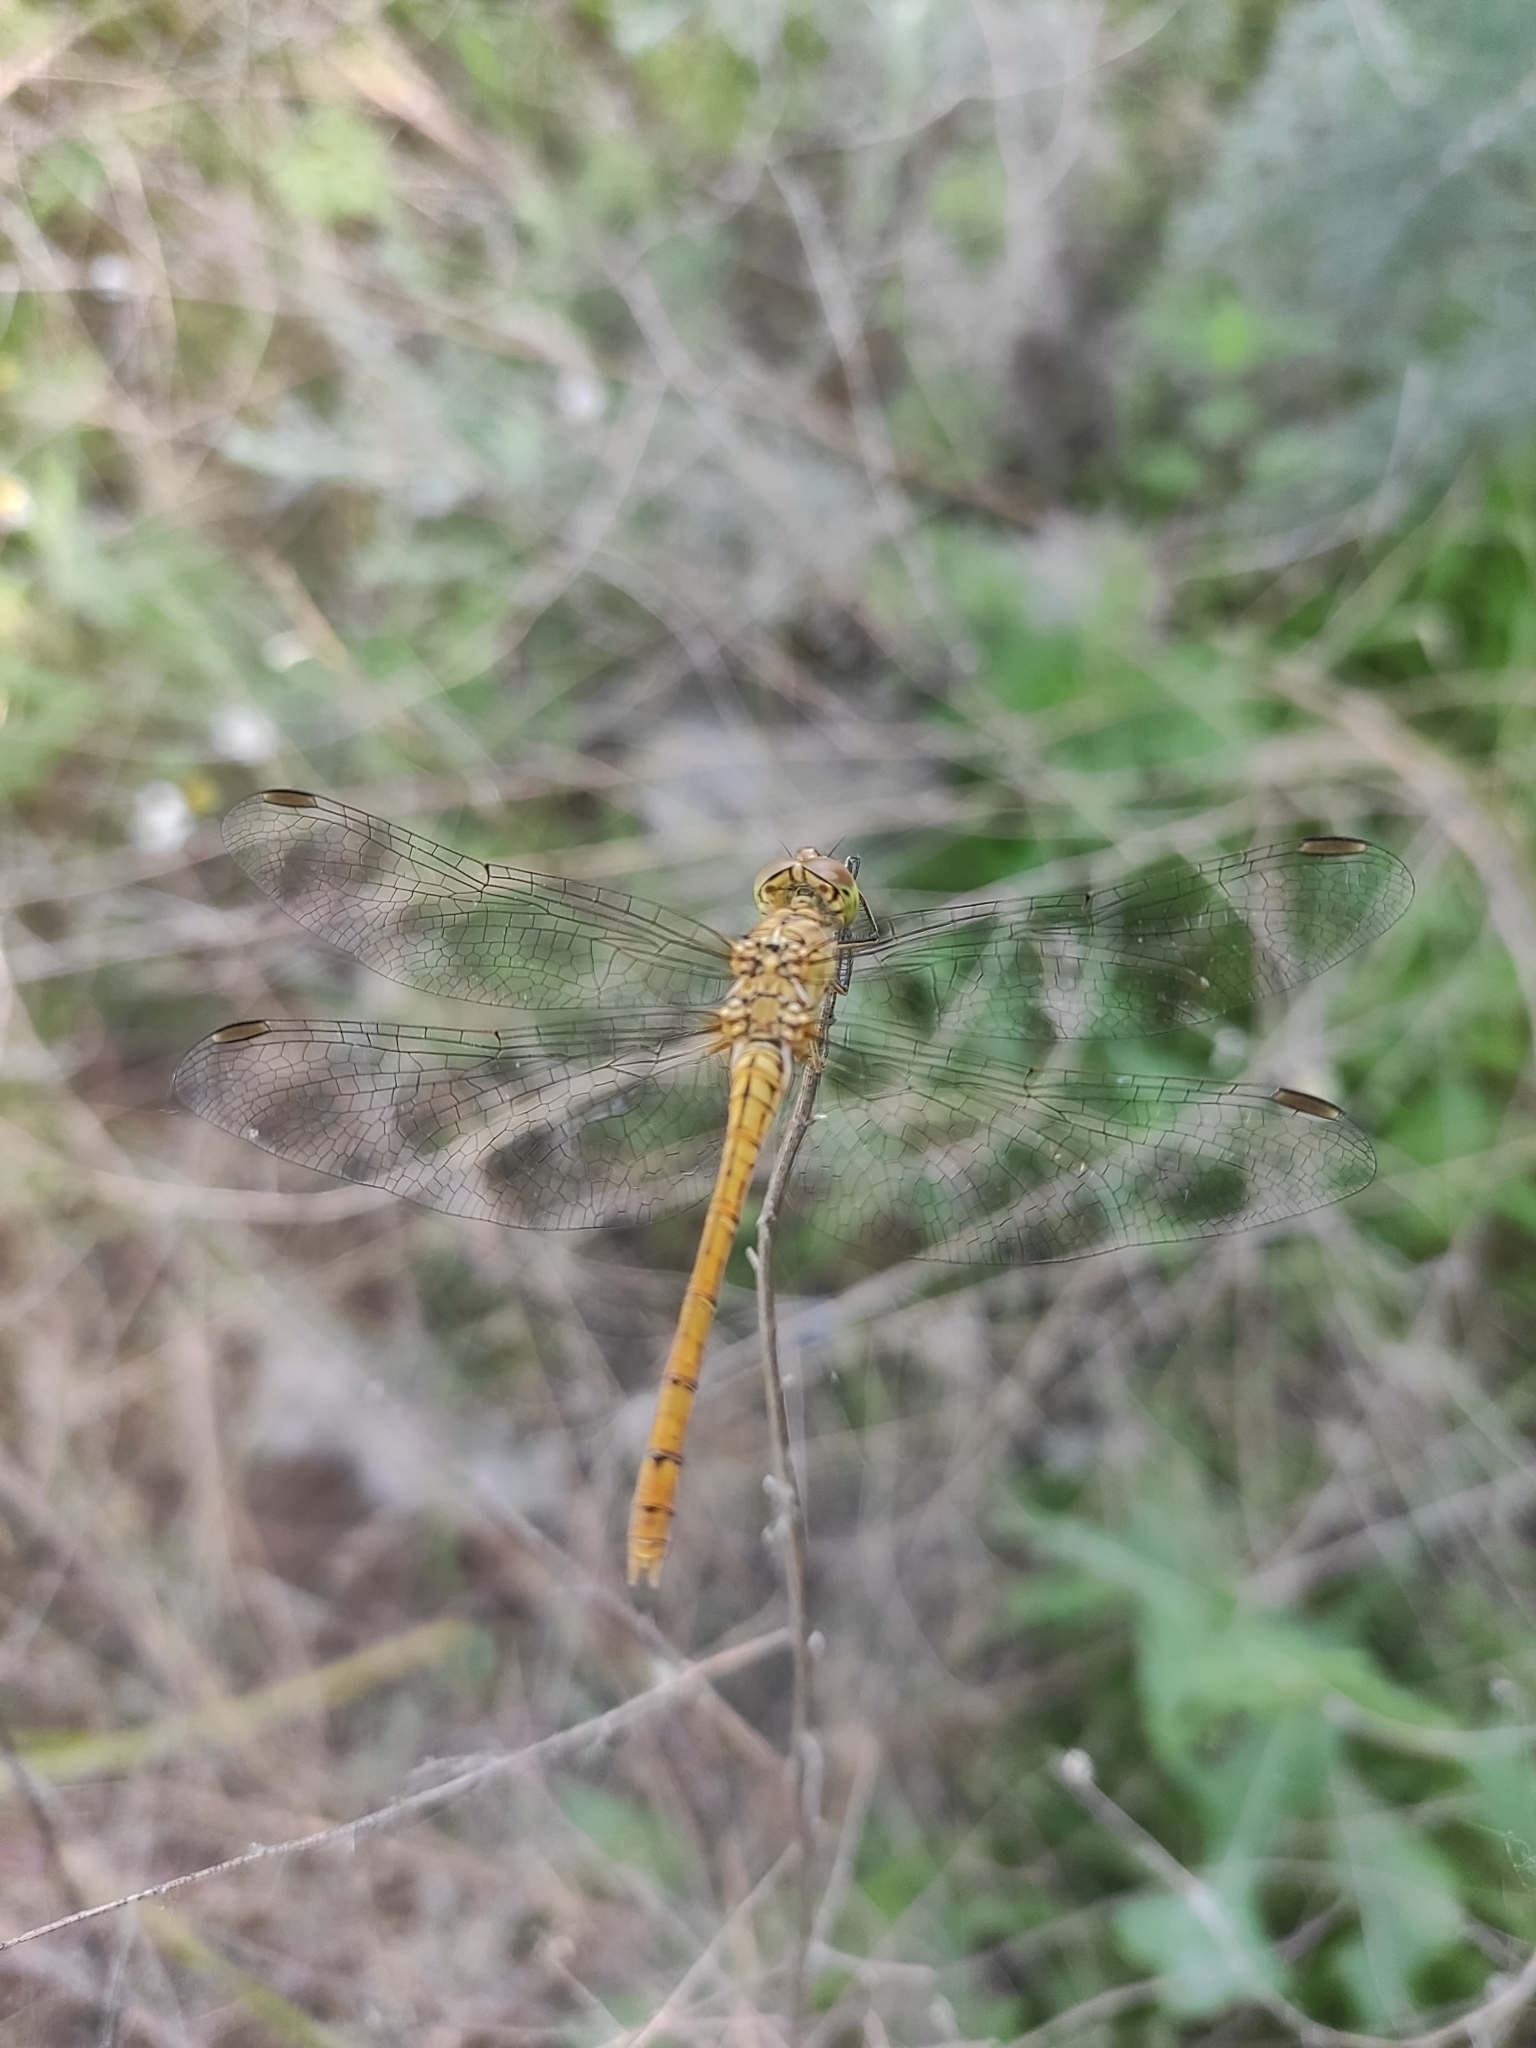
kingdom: Animalia
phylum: Arthropoda
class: Insecta
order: Odonata
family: Libellulidae
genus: Sympetrum
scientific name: Sympetrum meridionale
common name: Southern darter
